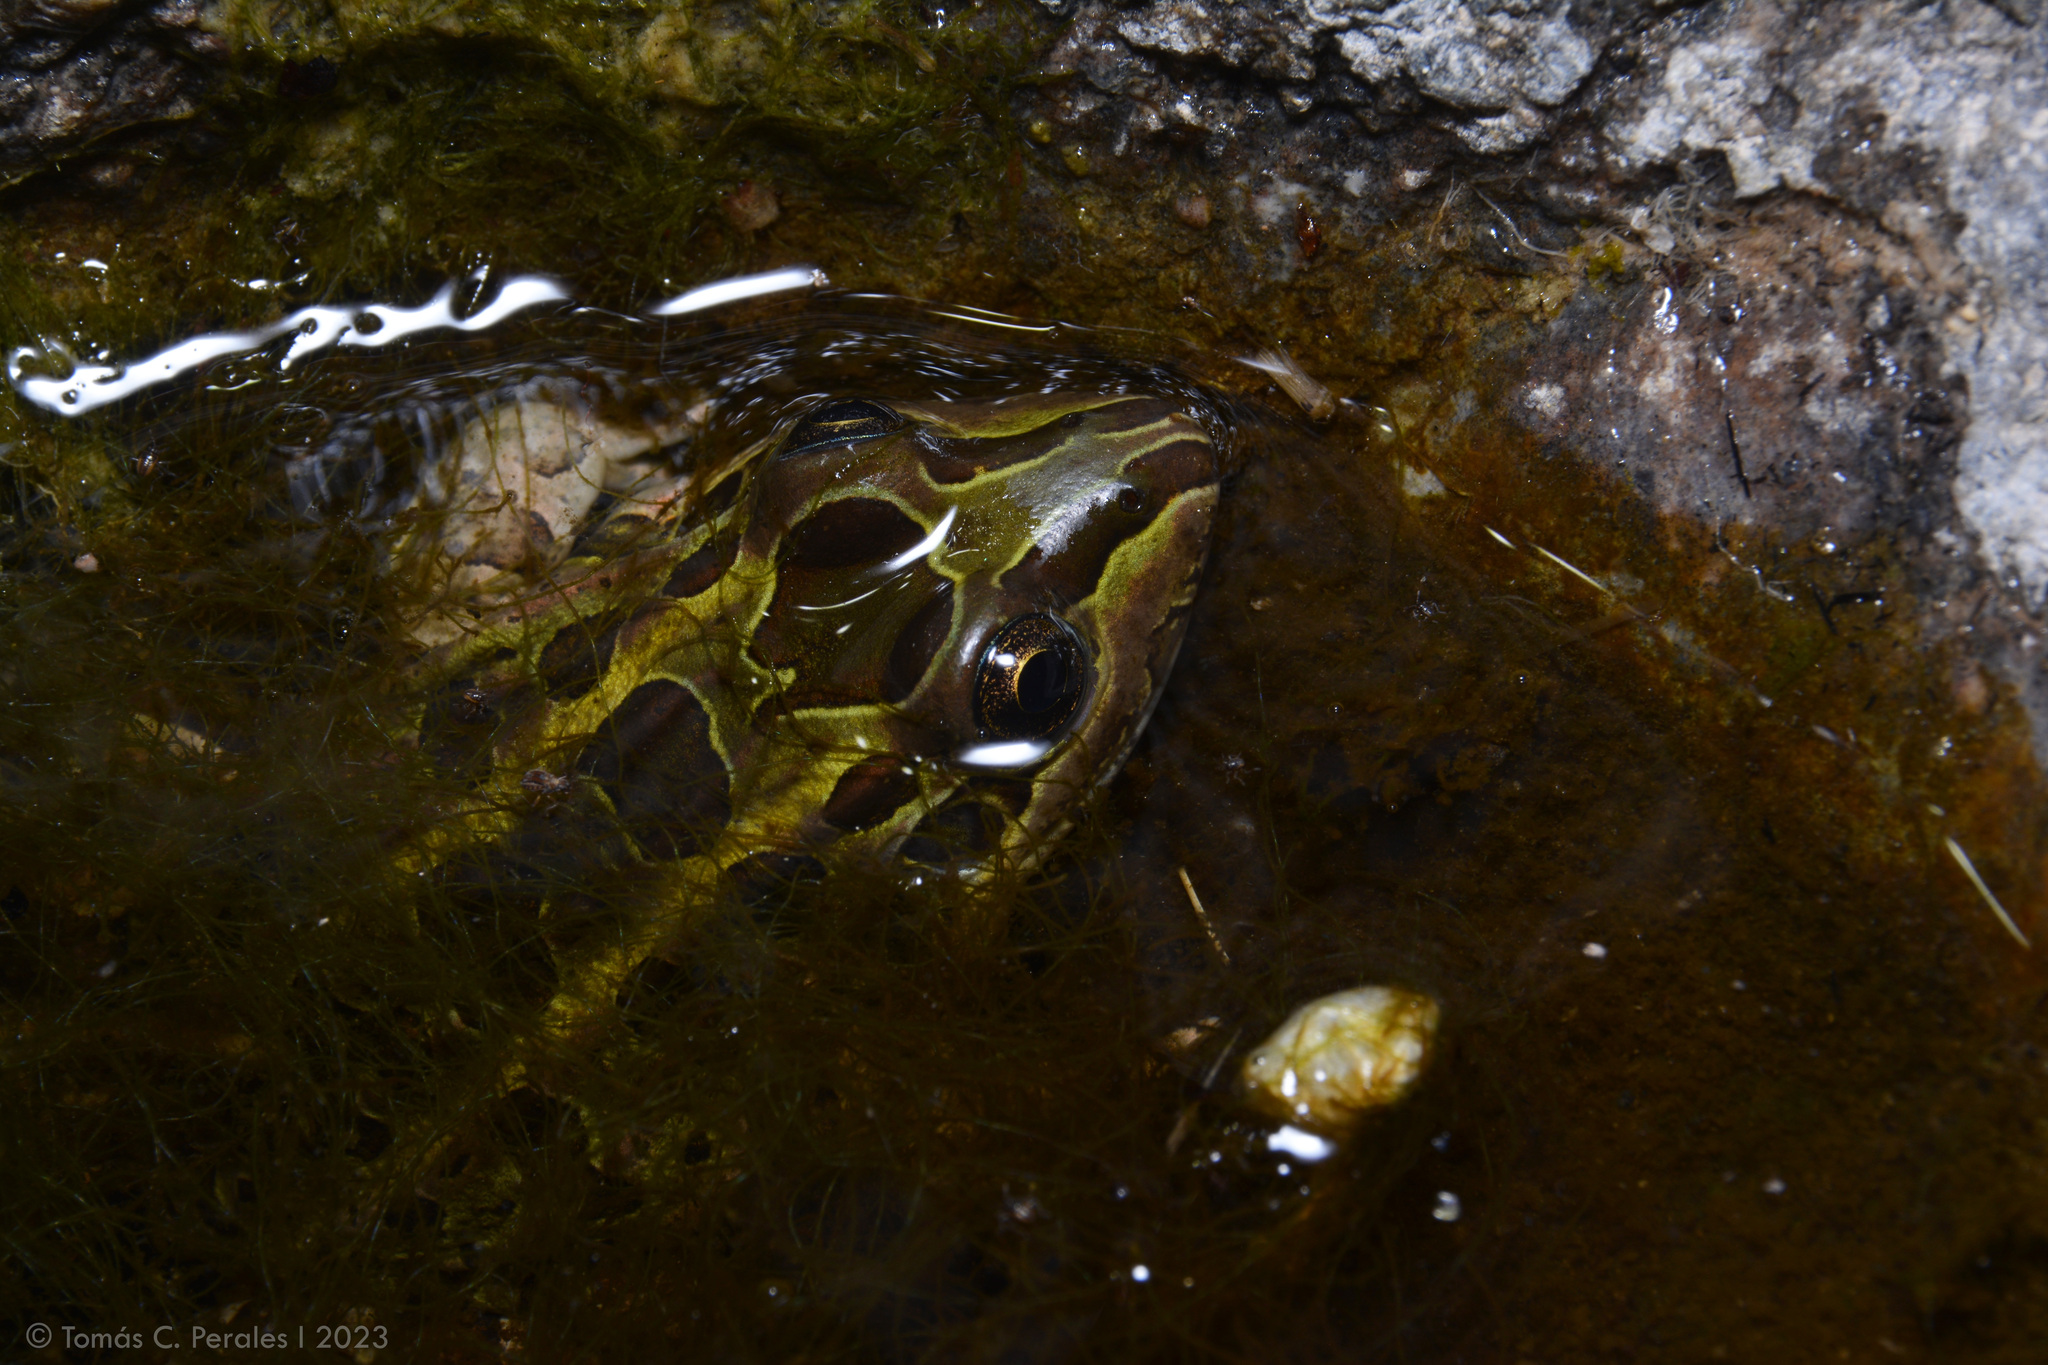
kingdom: Animalia
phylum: Chordata
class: Amphibia
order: Anura
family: Leptodactylidae
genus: Leptodactylus
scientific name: Leptodactylus luctator
